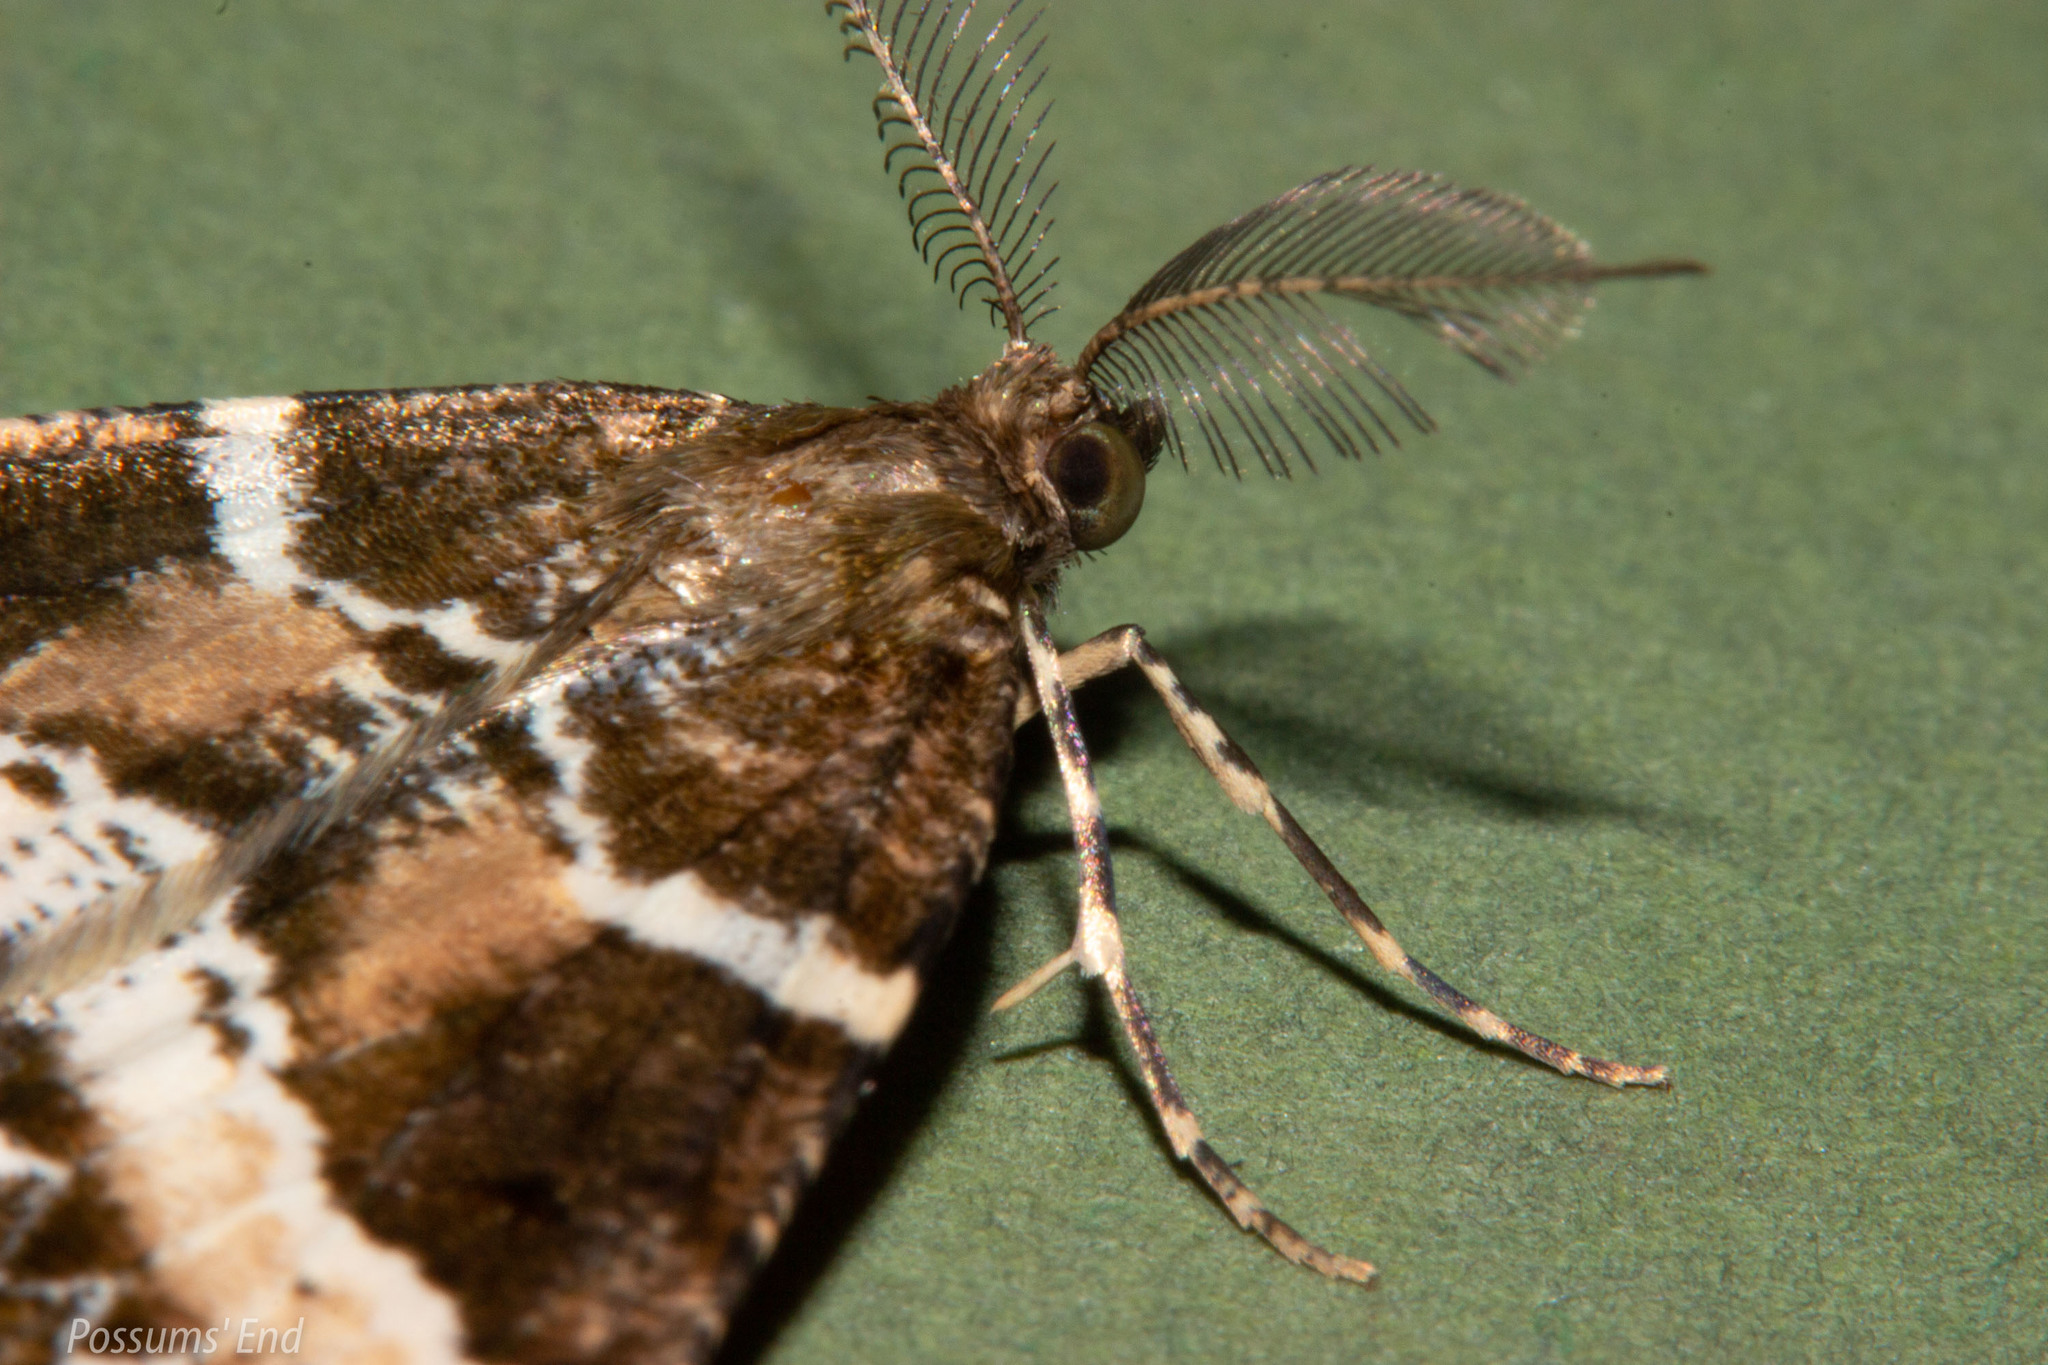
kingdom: Animalia
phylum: Arthropoda
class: Insecta
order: Lepidoptera
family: Geometridae
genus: Pseudocoremia
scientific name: Pseudocoremia
